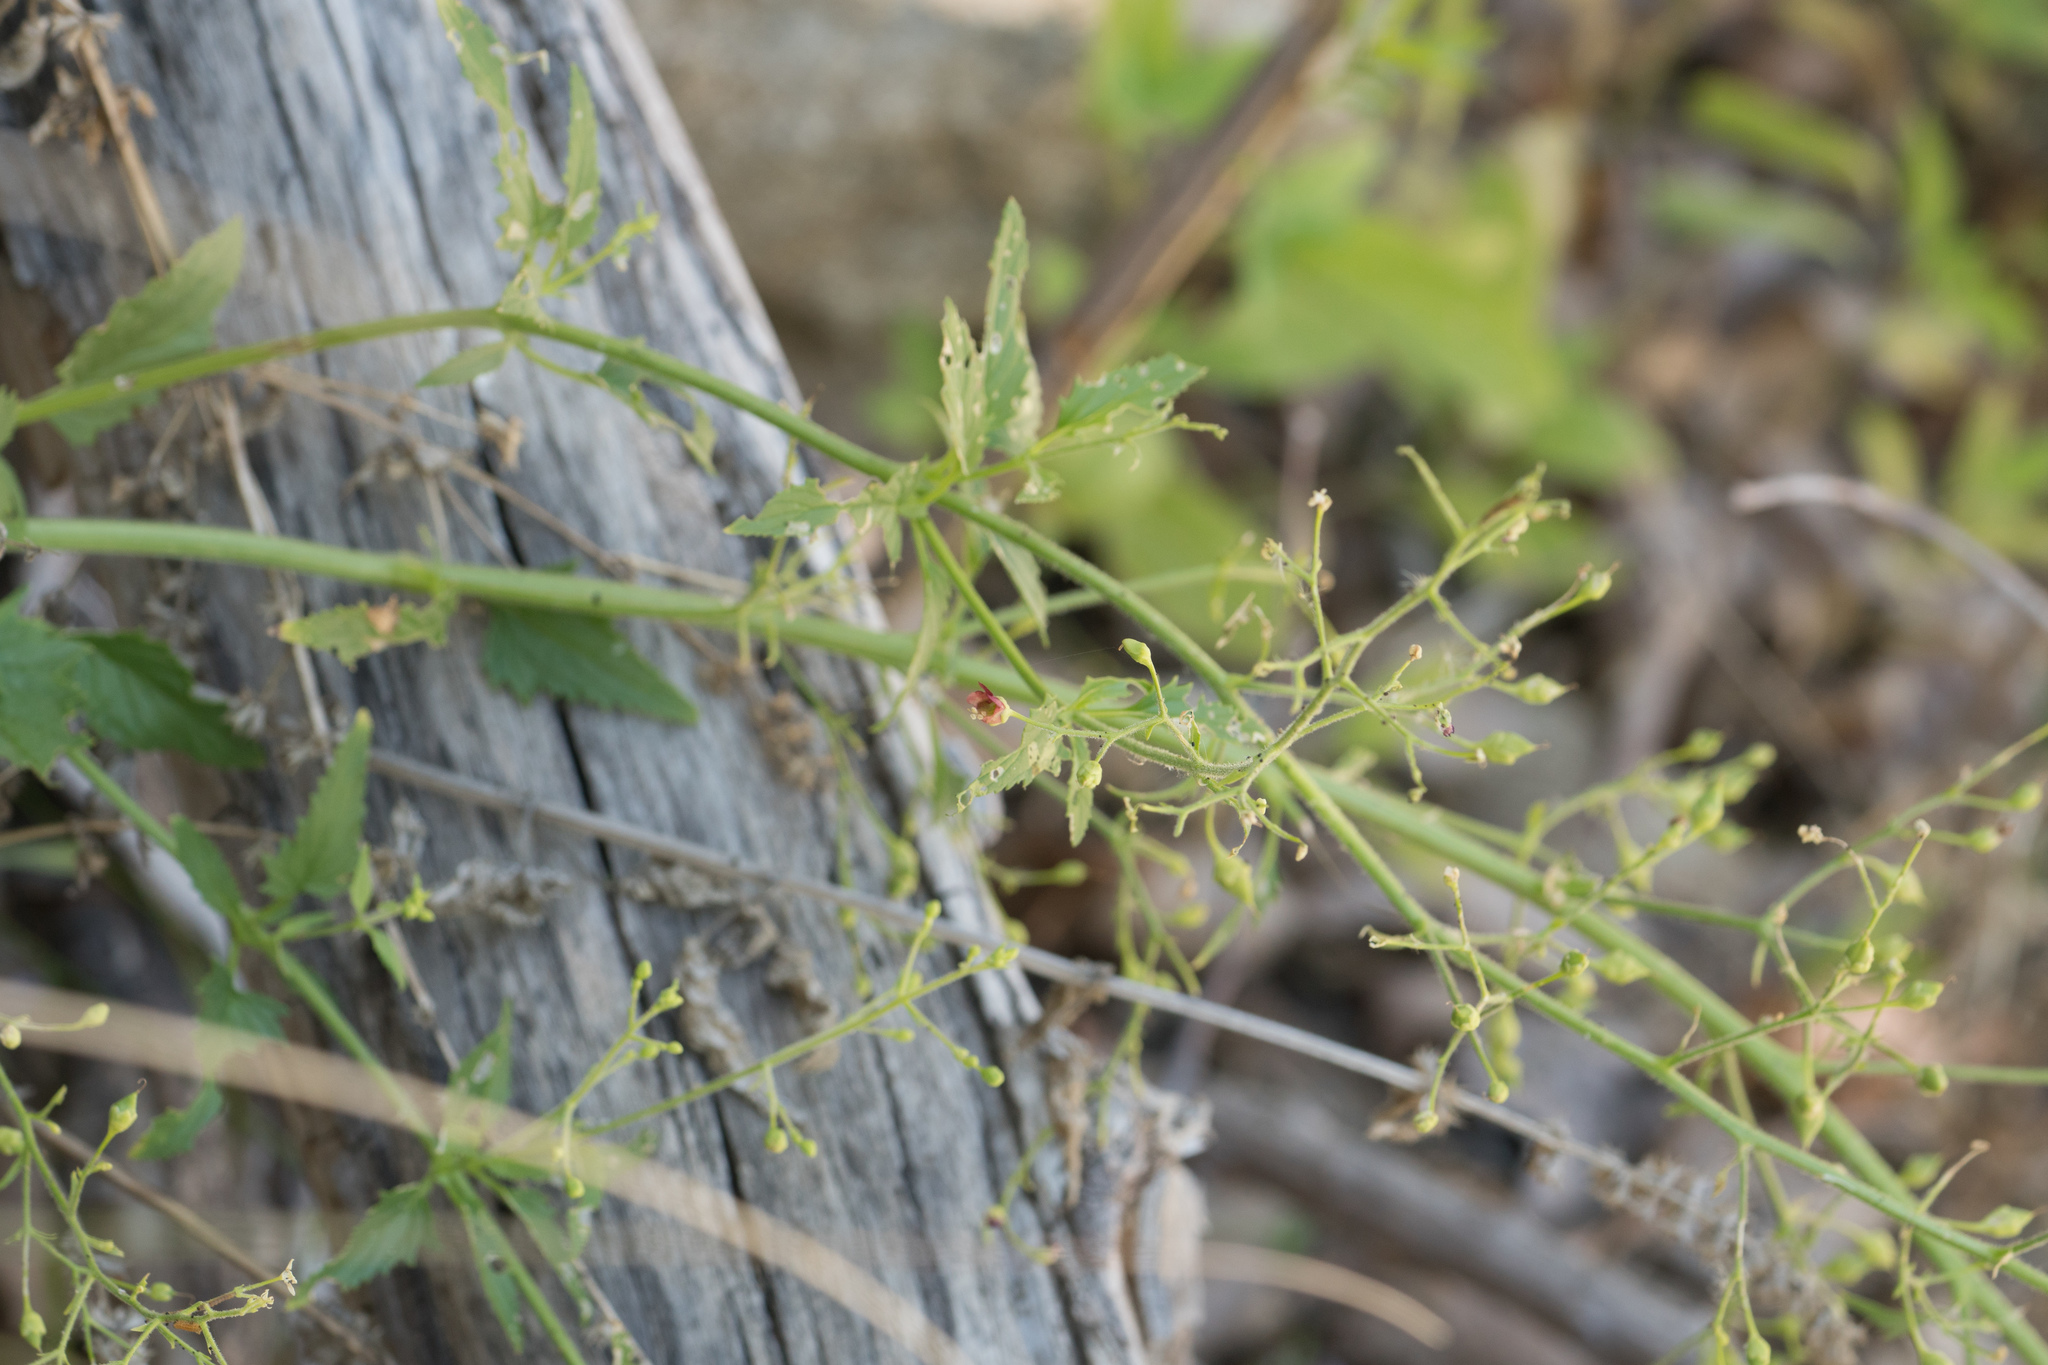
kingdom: Plantae
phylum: Tracheophyta
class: Magnoliopsida
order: Lamiales
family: Scrophulariaceae
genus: Scrophularia
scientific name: Scrophularia californica
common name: California figwort
